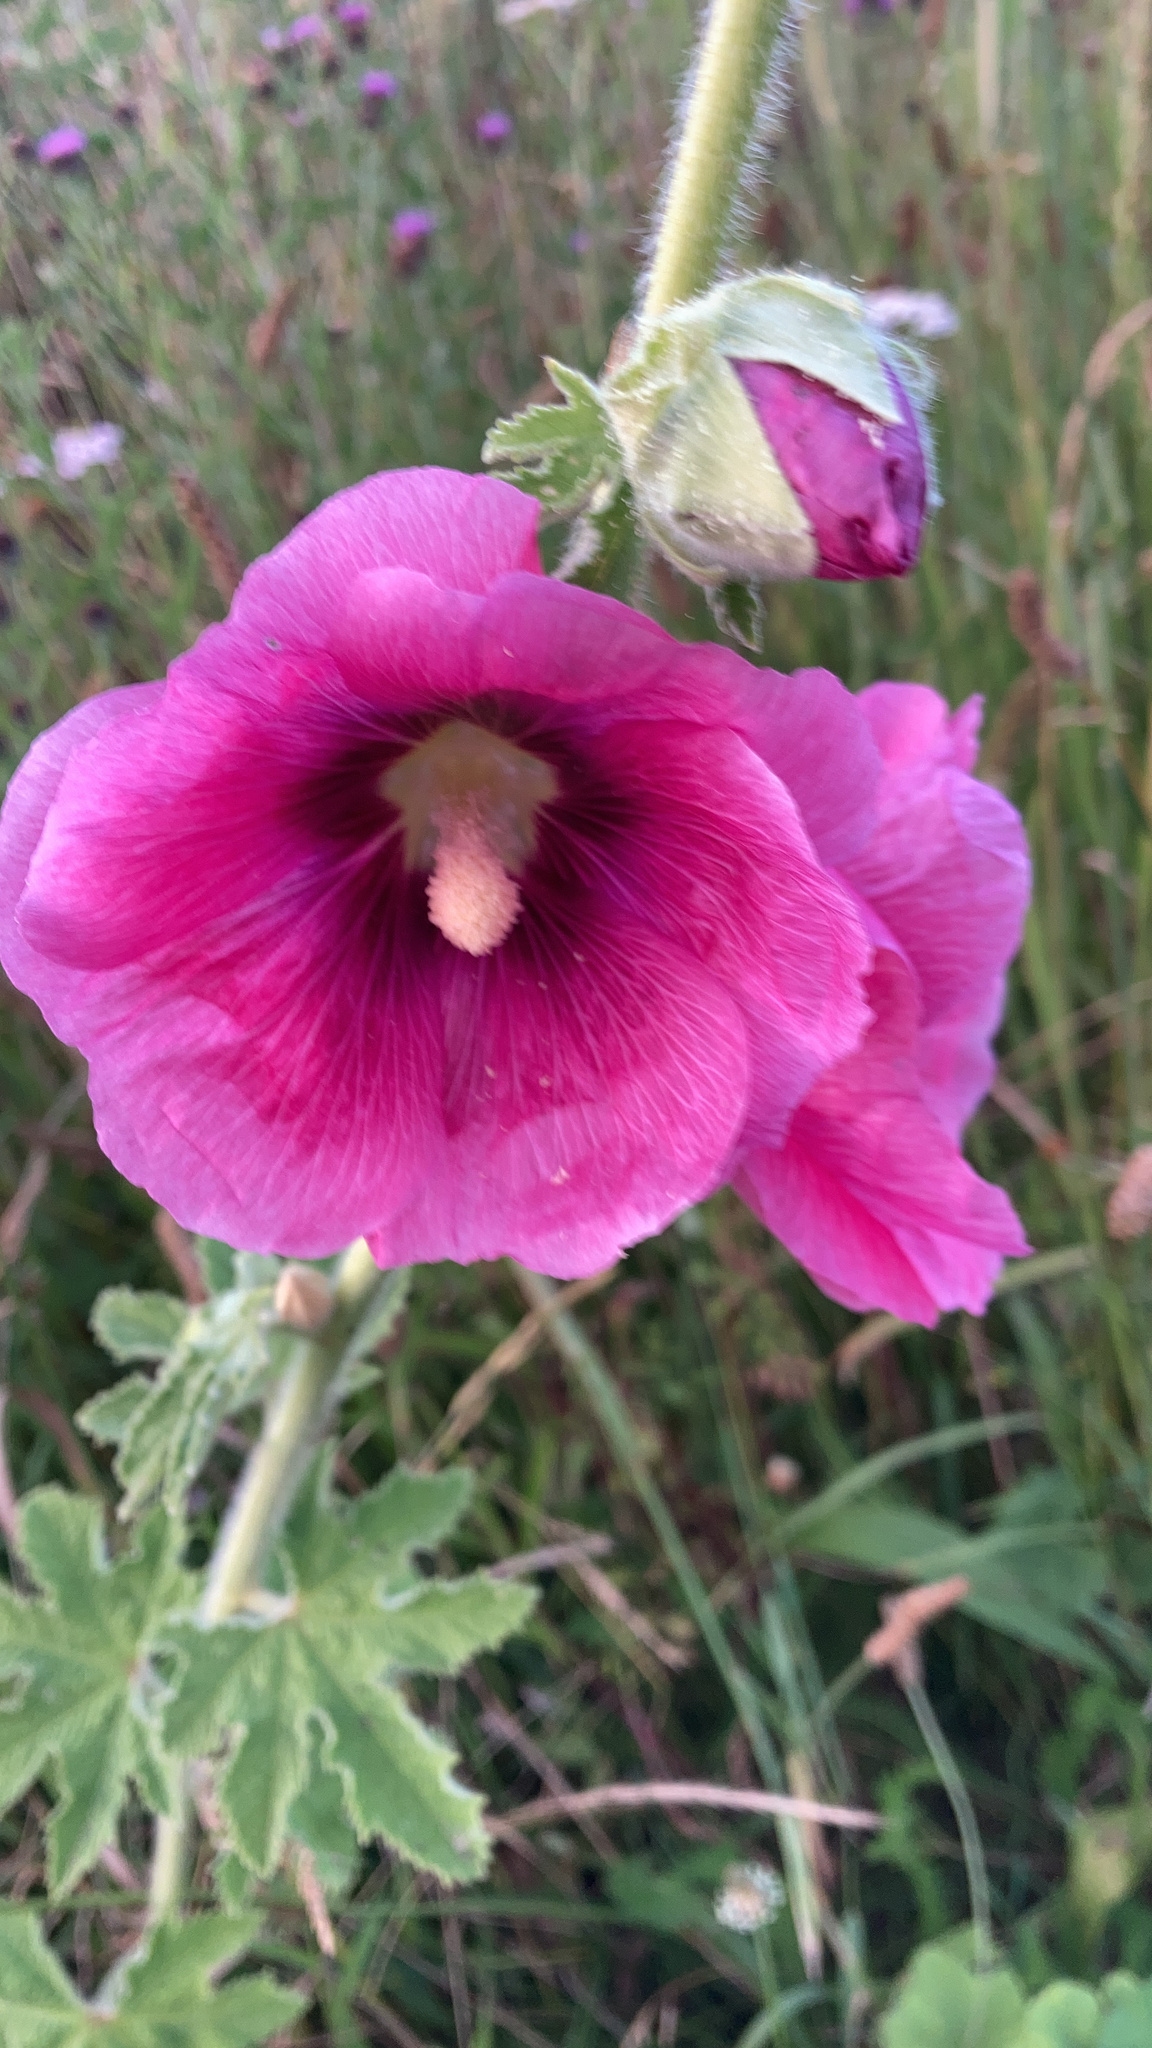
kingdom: Plantae
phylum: Tracheophyta
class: Magnoliopsida
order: Malvales
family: Malvaceae
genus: Alcea
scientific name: Alcea rosea
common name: Hollyhock
